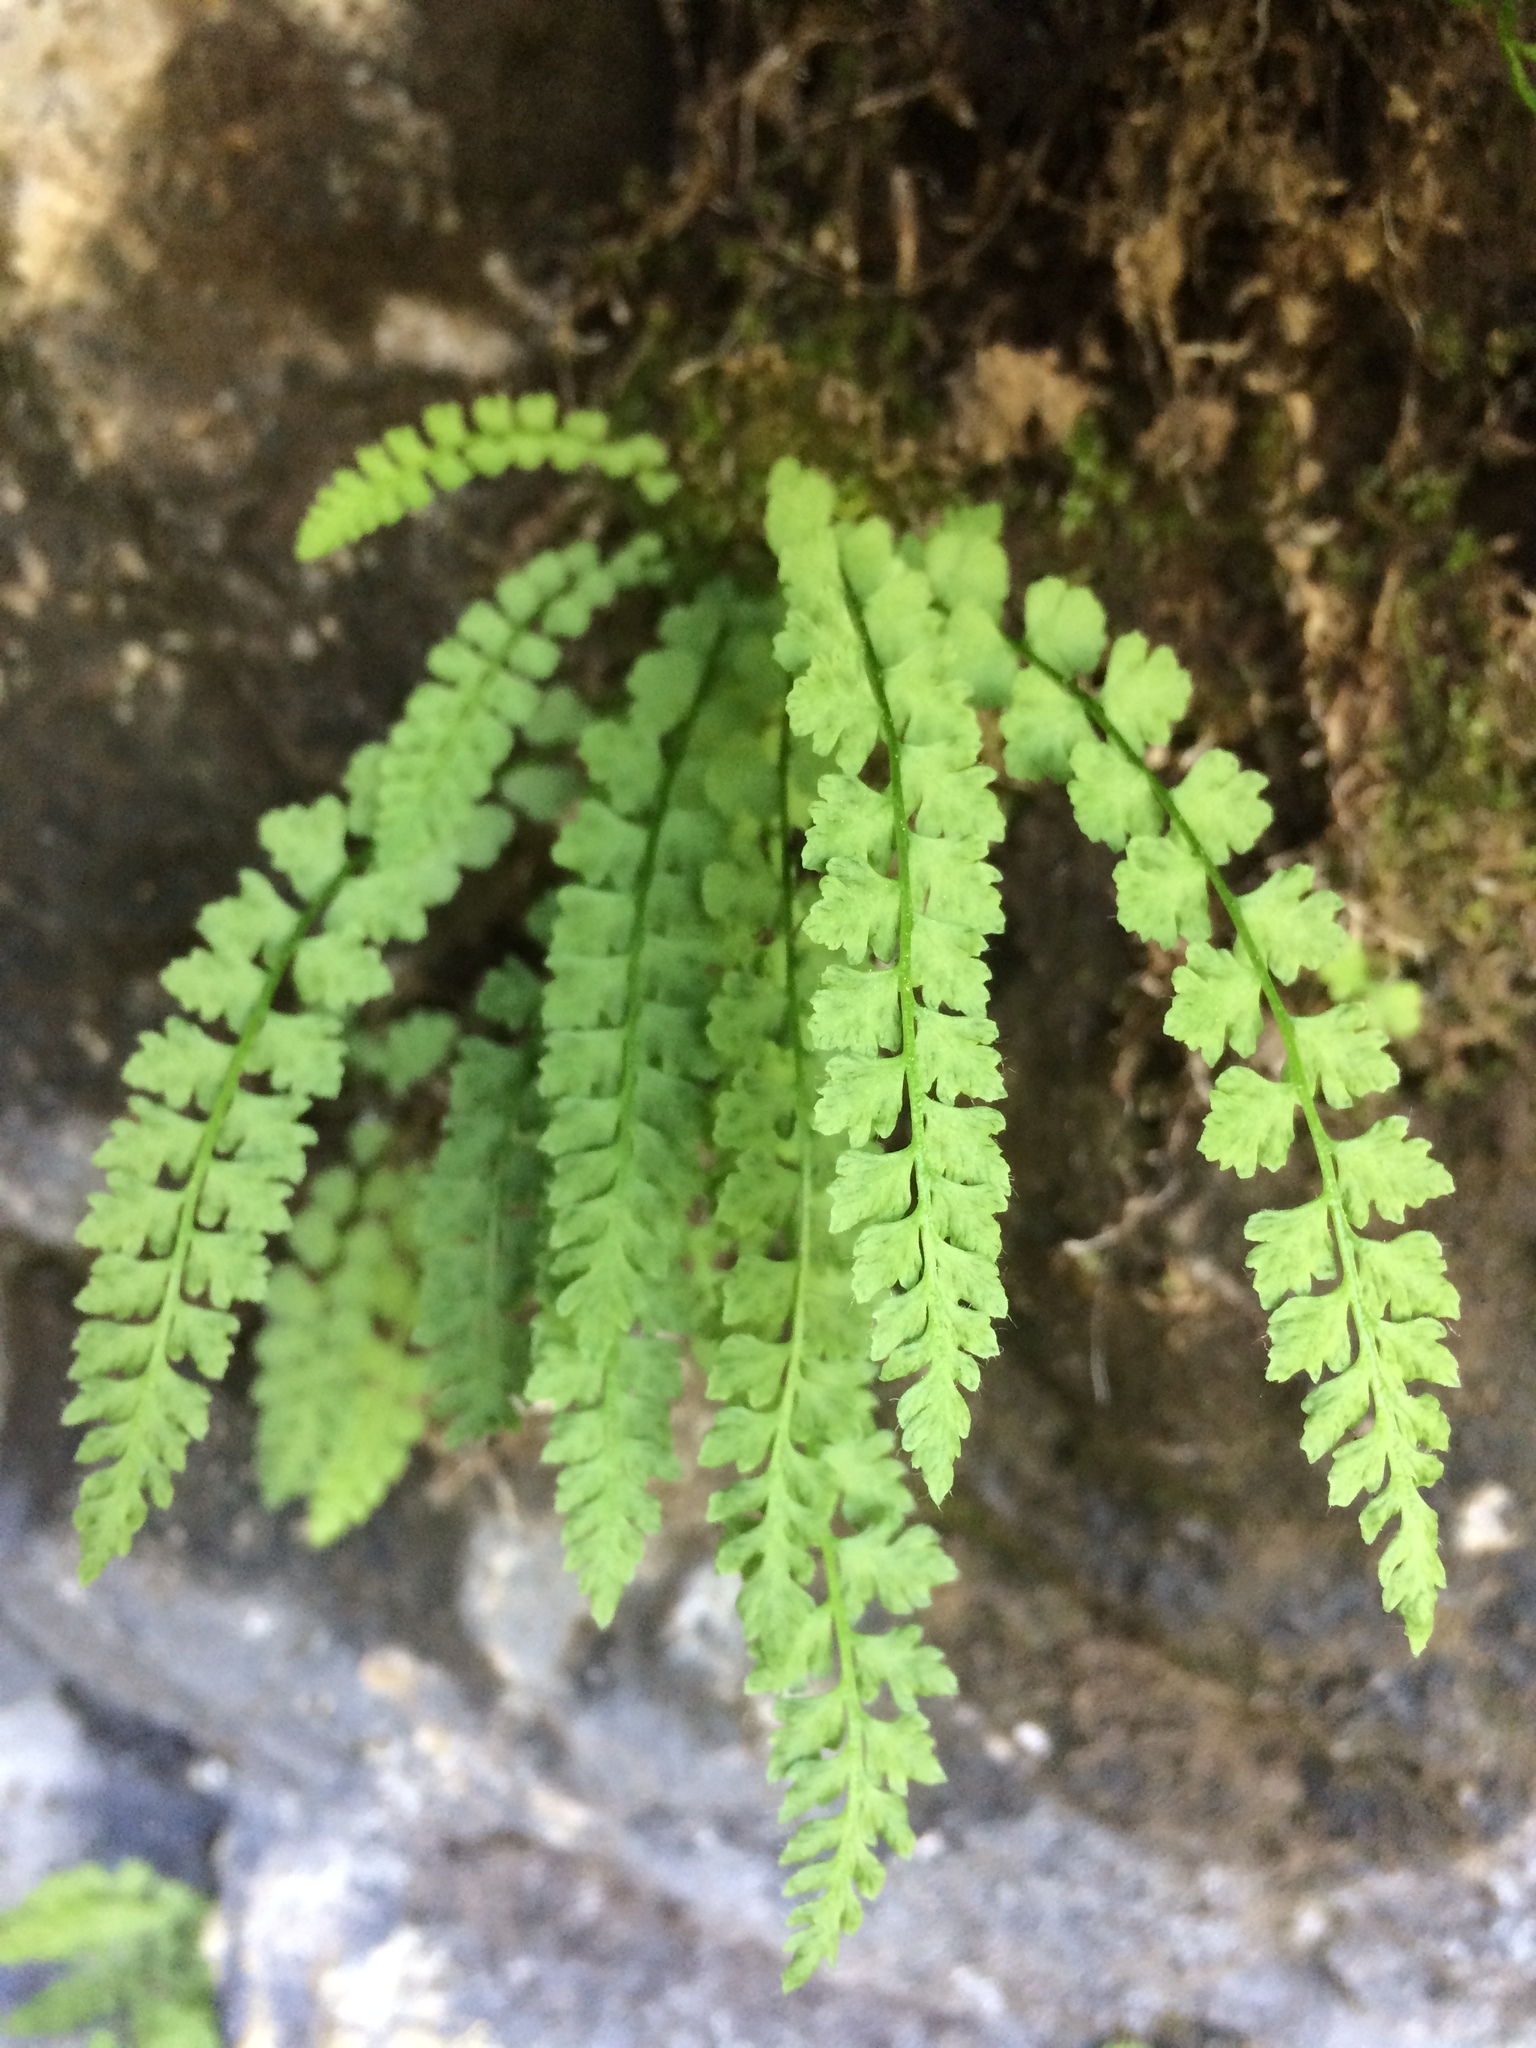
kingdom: Plantae
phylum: Tracheophyta
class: Polypodiopsida
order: Polypodiales
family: Woodsiaceae
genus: Woodsia
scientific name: Woodsia glabella
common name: Smooth woodsia
